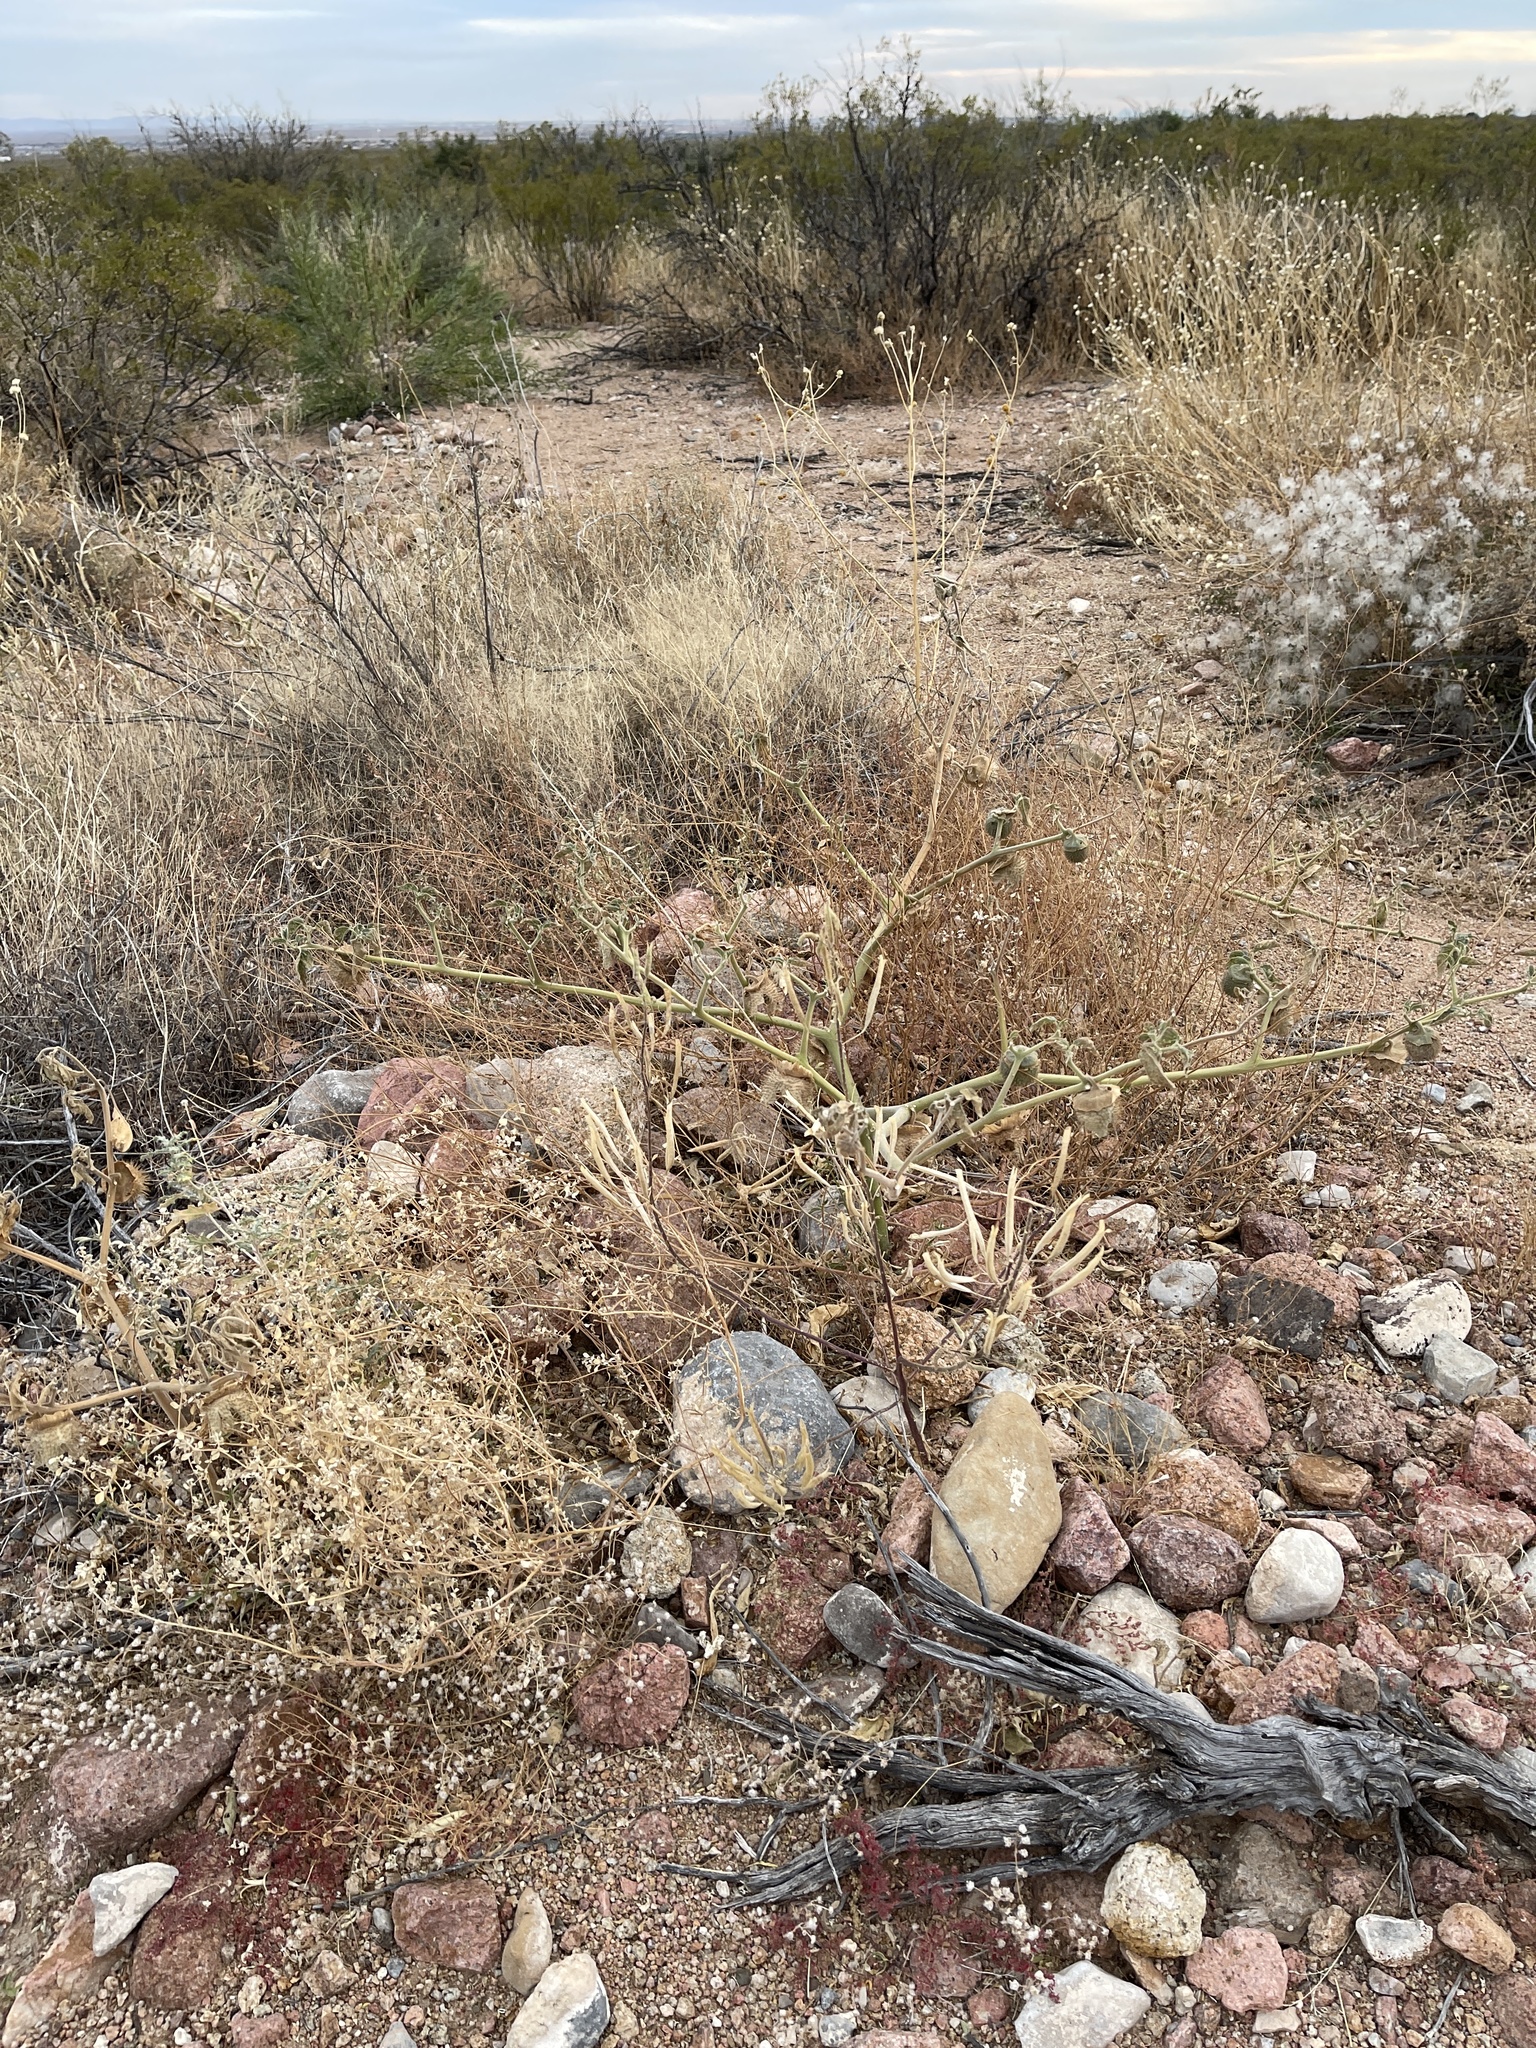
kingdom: Plantae
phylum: Tracheophyta
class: Magnoliopsida
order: Solanales
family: Solanaceae
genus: Datura
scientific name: Datura wrightii
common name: Sacred thorn-apple
